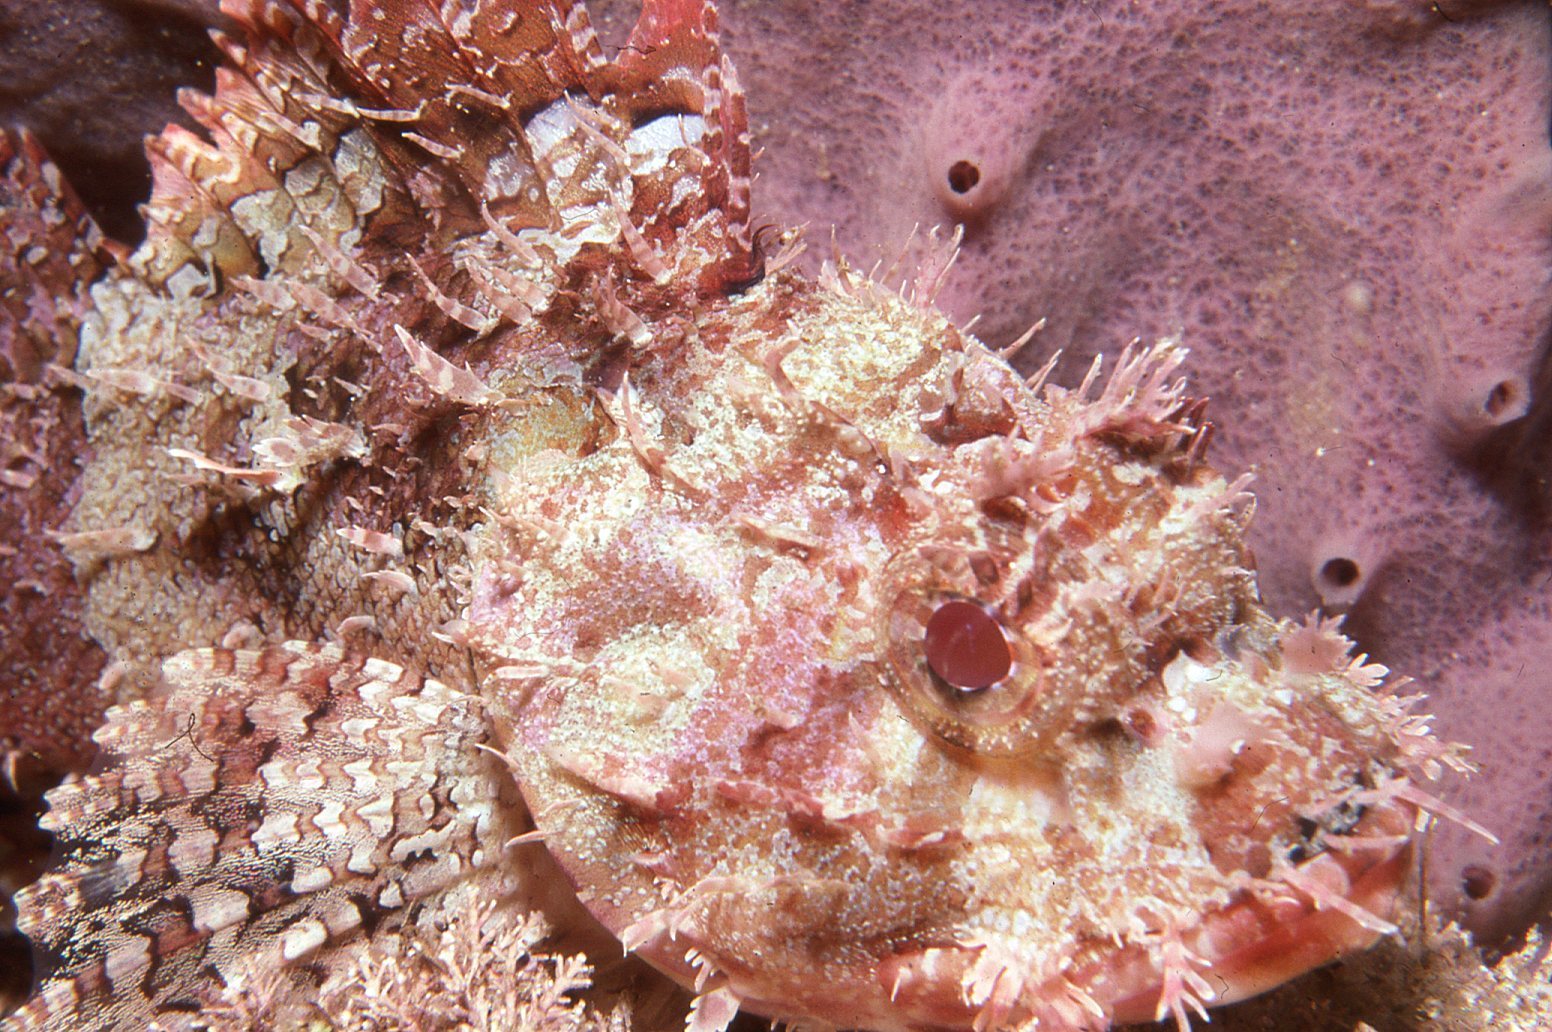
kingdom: Animalia
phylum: Chordata
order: Scorpaeniformes
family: Scorpaenidae
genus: Scorpaena
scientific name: Scorpaena jacksoniensis
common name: Eastern red scorpionfish
